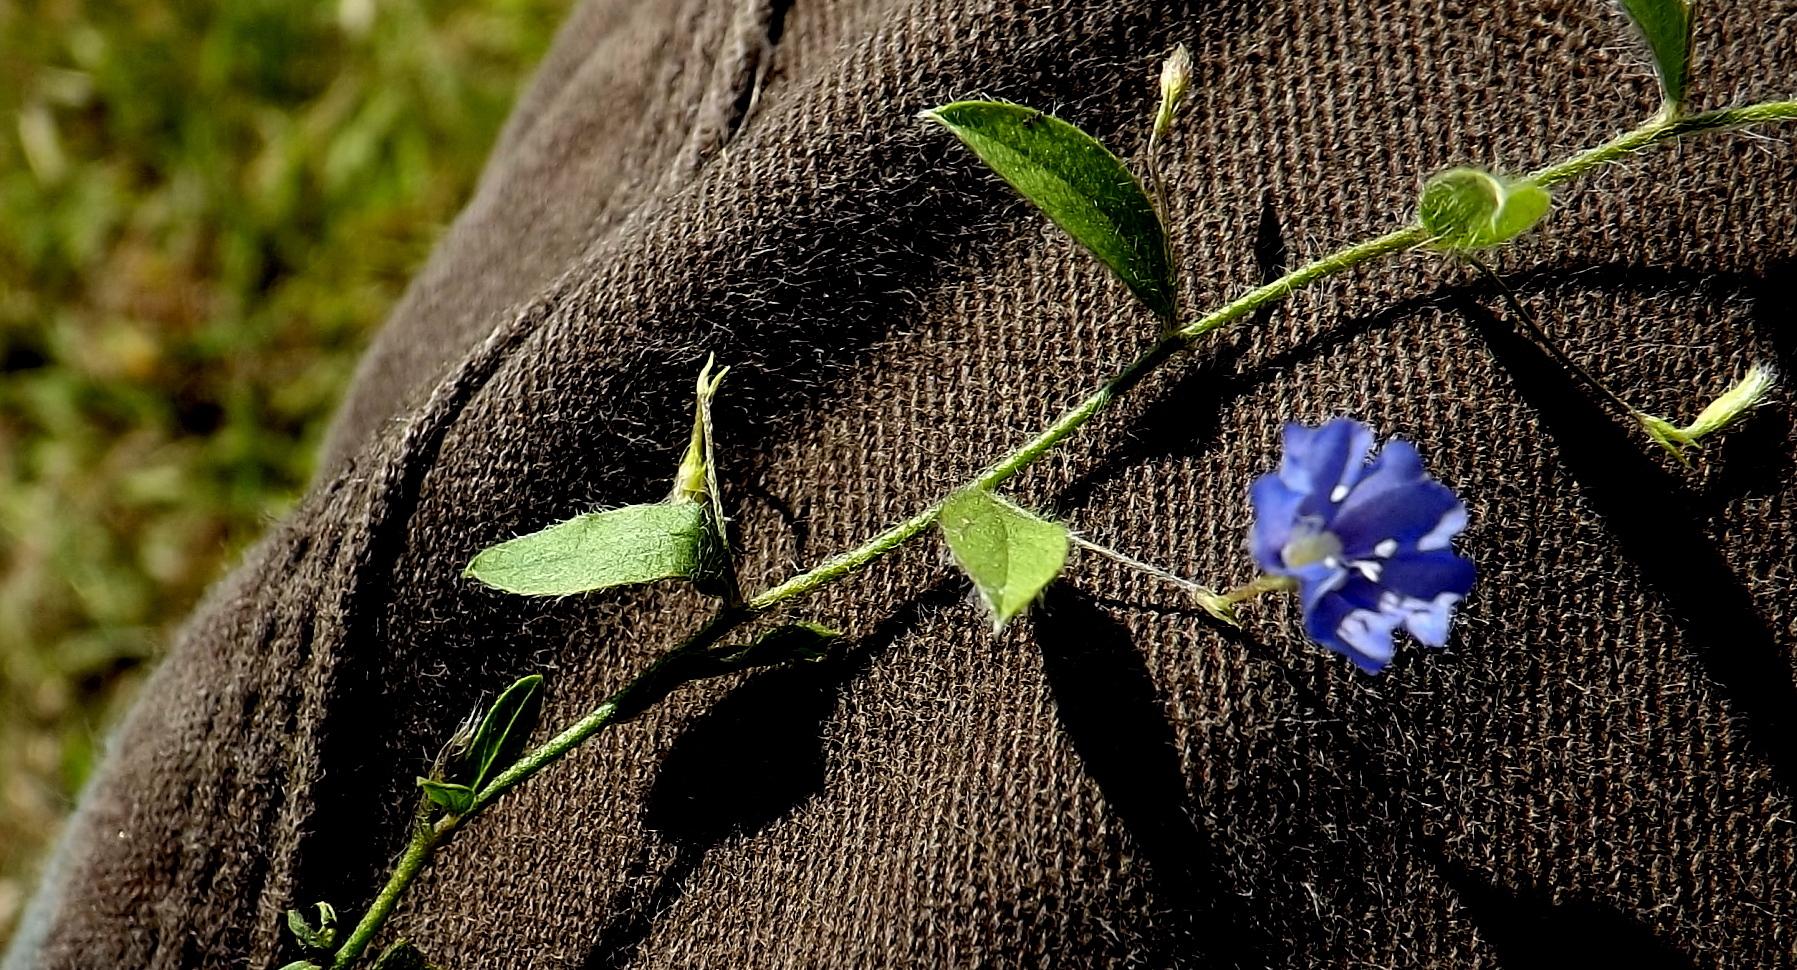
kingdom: Plantae
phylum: Tracheophyta
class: Magnoliopsida
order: Solanales
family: Convolvulaceae
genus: Evolvulus
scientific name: Evolvulus alsinoides
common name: Slender dwarf morning-glory
